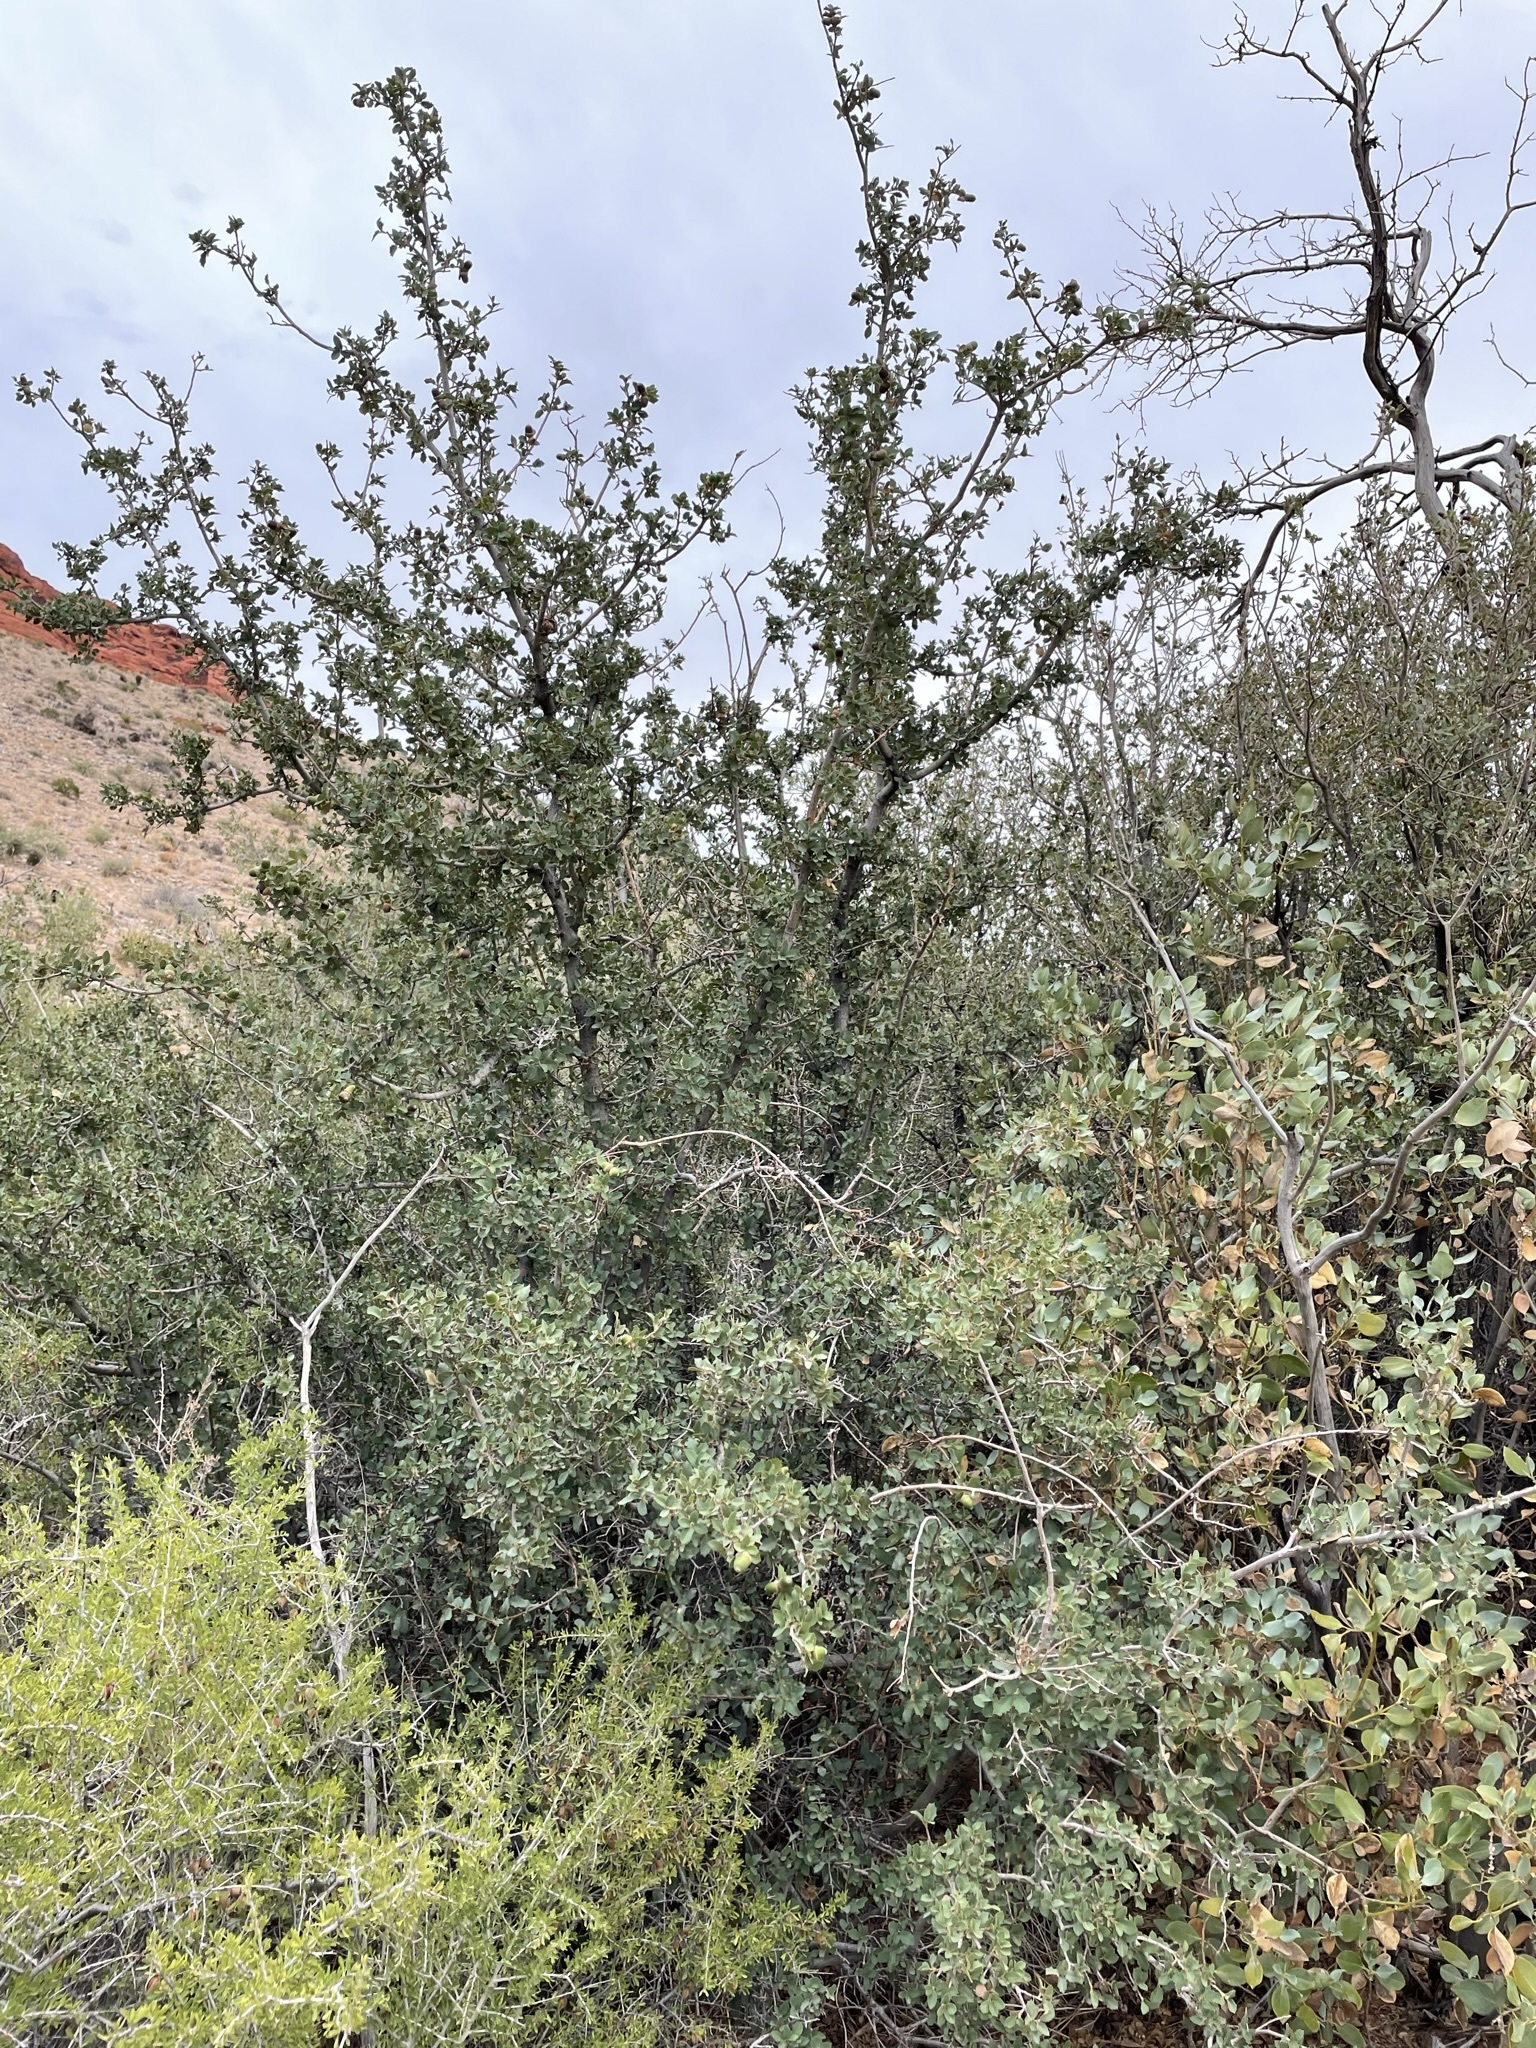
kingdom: Plantae
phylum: Tracheophyta
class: Magnoliopsida
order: Fagales
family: Fagaceae
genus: Quercus
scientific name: Quercus turbinella
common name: Sonoran scrub oak
